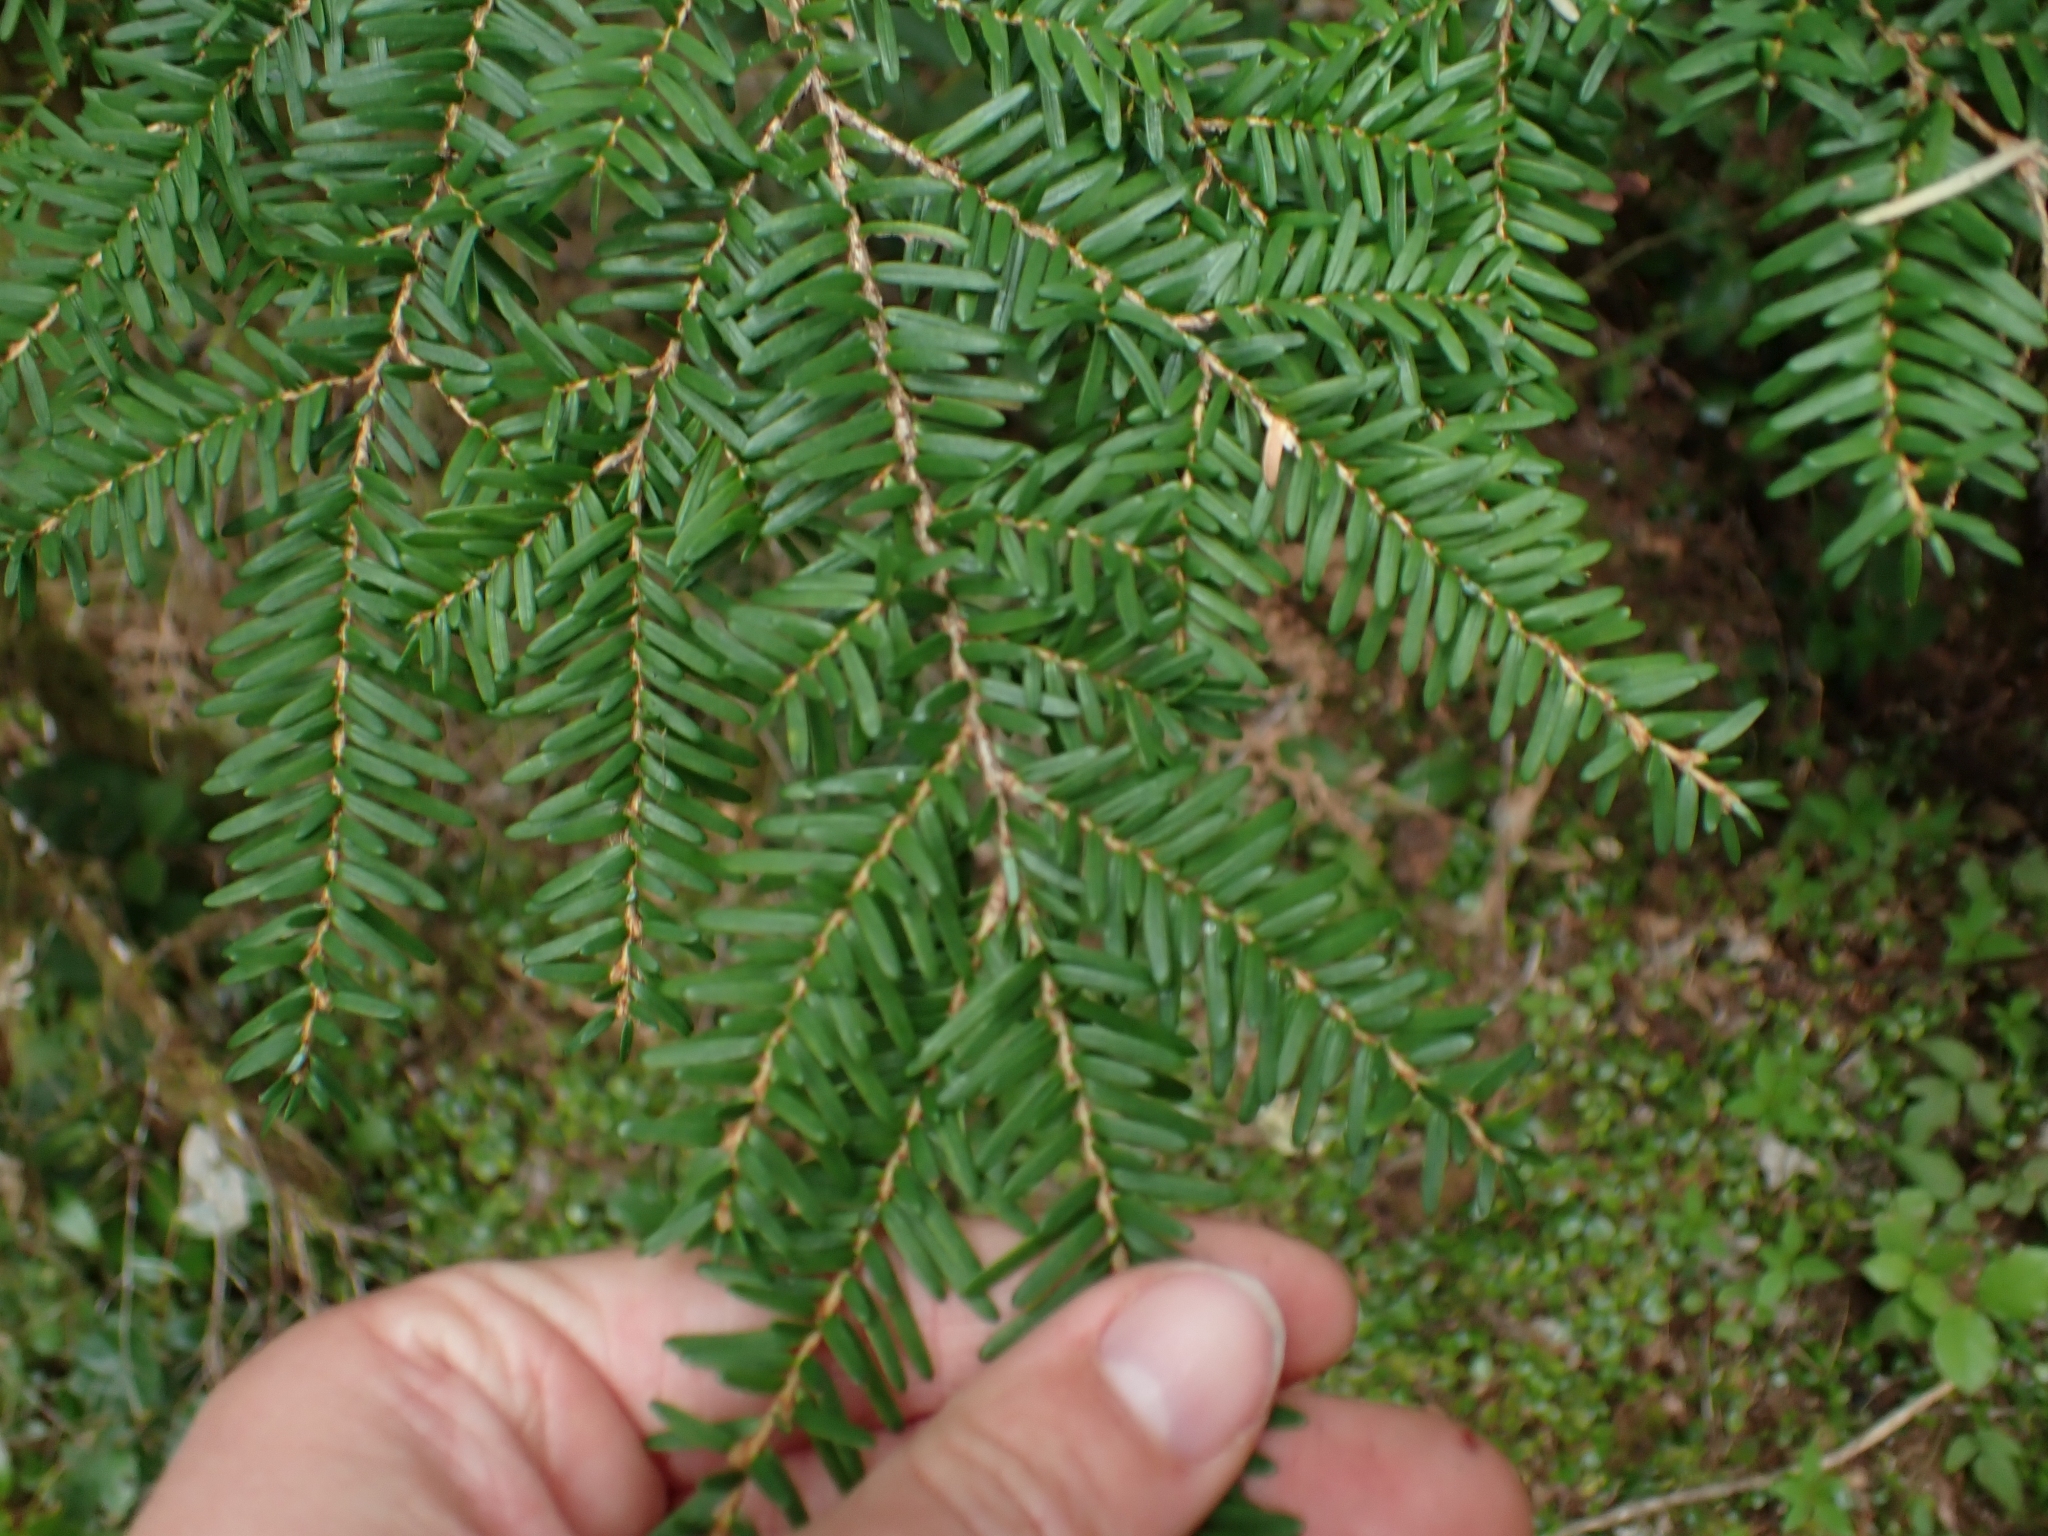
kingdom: Plantae
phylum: Tracheophyta
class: Pinopsida
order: Pinales
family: Pinaceae
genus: Tsuga
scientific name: Tsuga heterophylla
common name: Western hemlock
